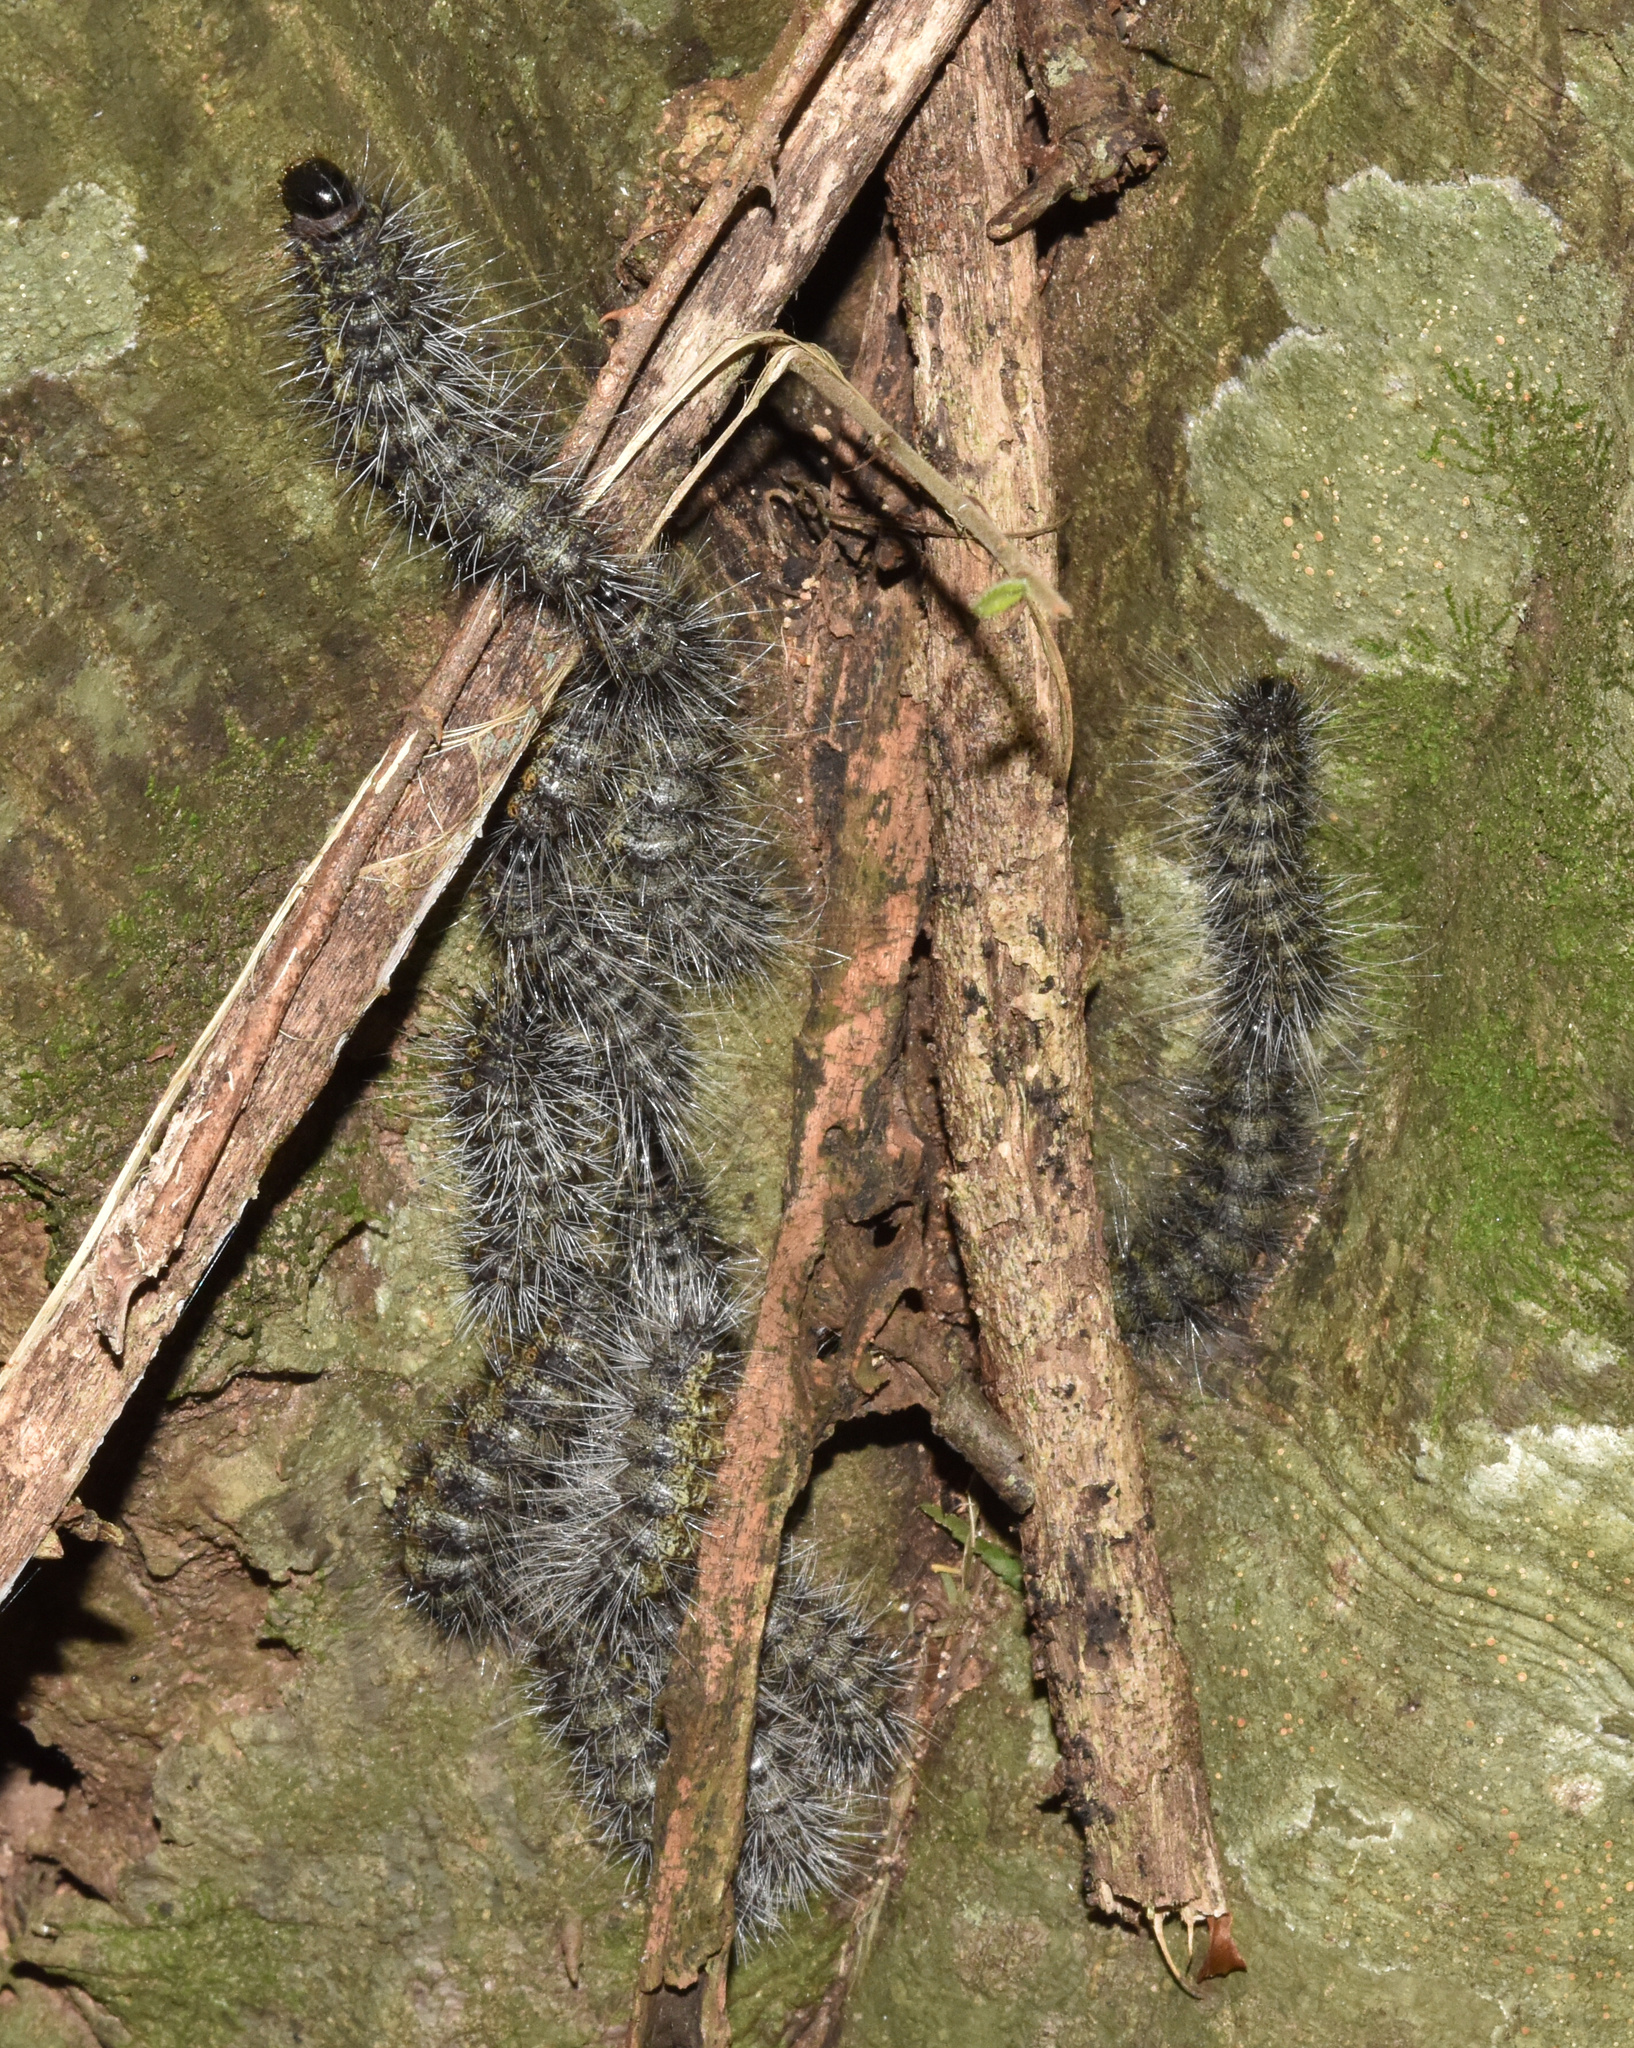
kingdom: Animalia
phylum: Arthropoda
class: Insecta
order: Lepidoptera
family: Notodontidae
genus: Anaphe
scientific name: Anaphe reticulata
